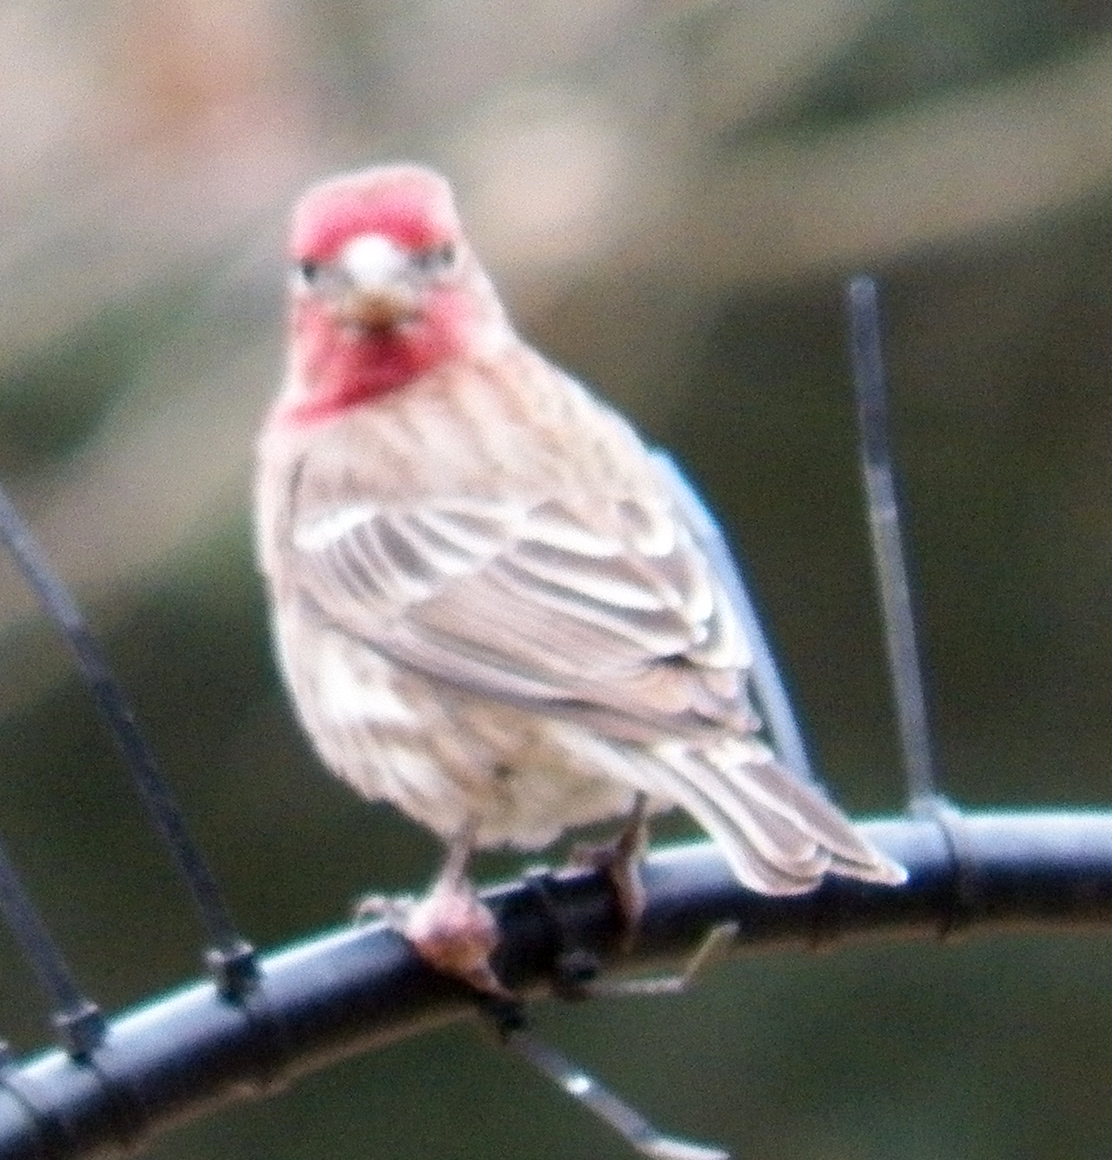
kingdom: Animalia
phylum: Chordata
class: Aves
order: Passeriformes
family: Fringillidae
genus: Haemorhous
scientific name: Haemorhous mexicanus
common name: House finch
